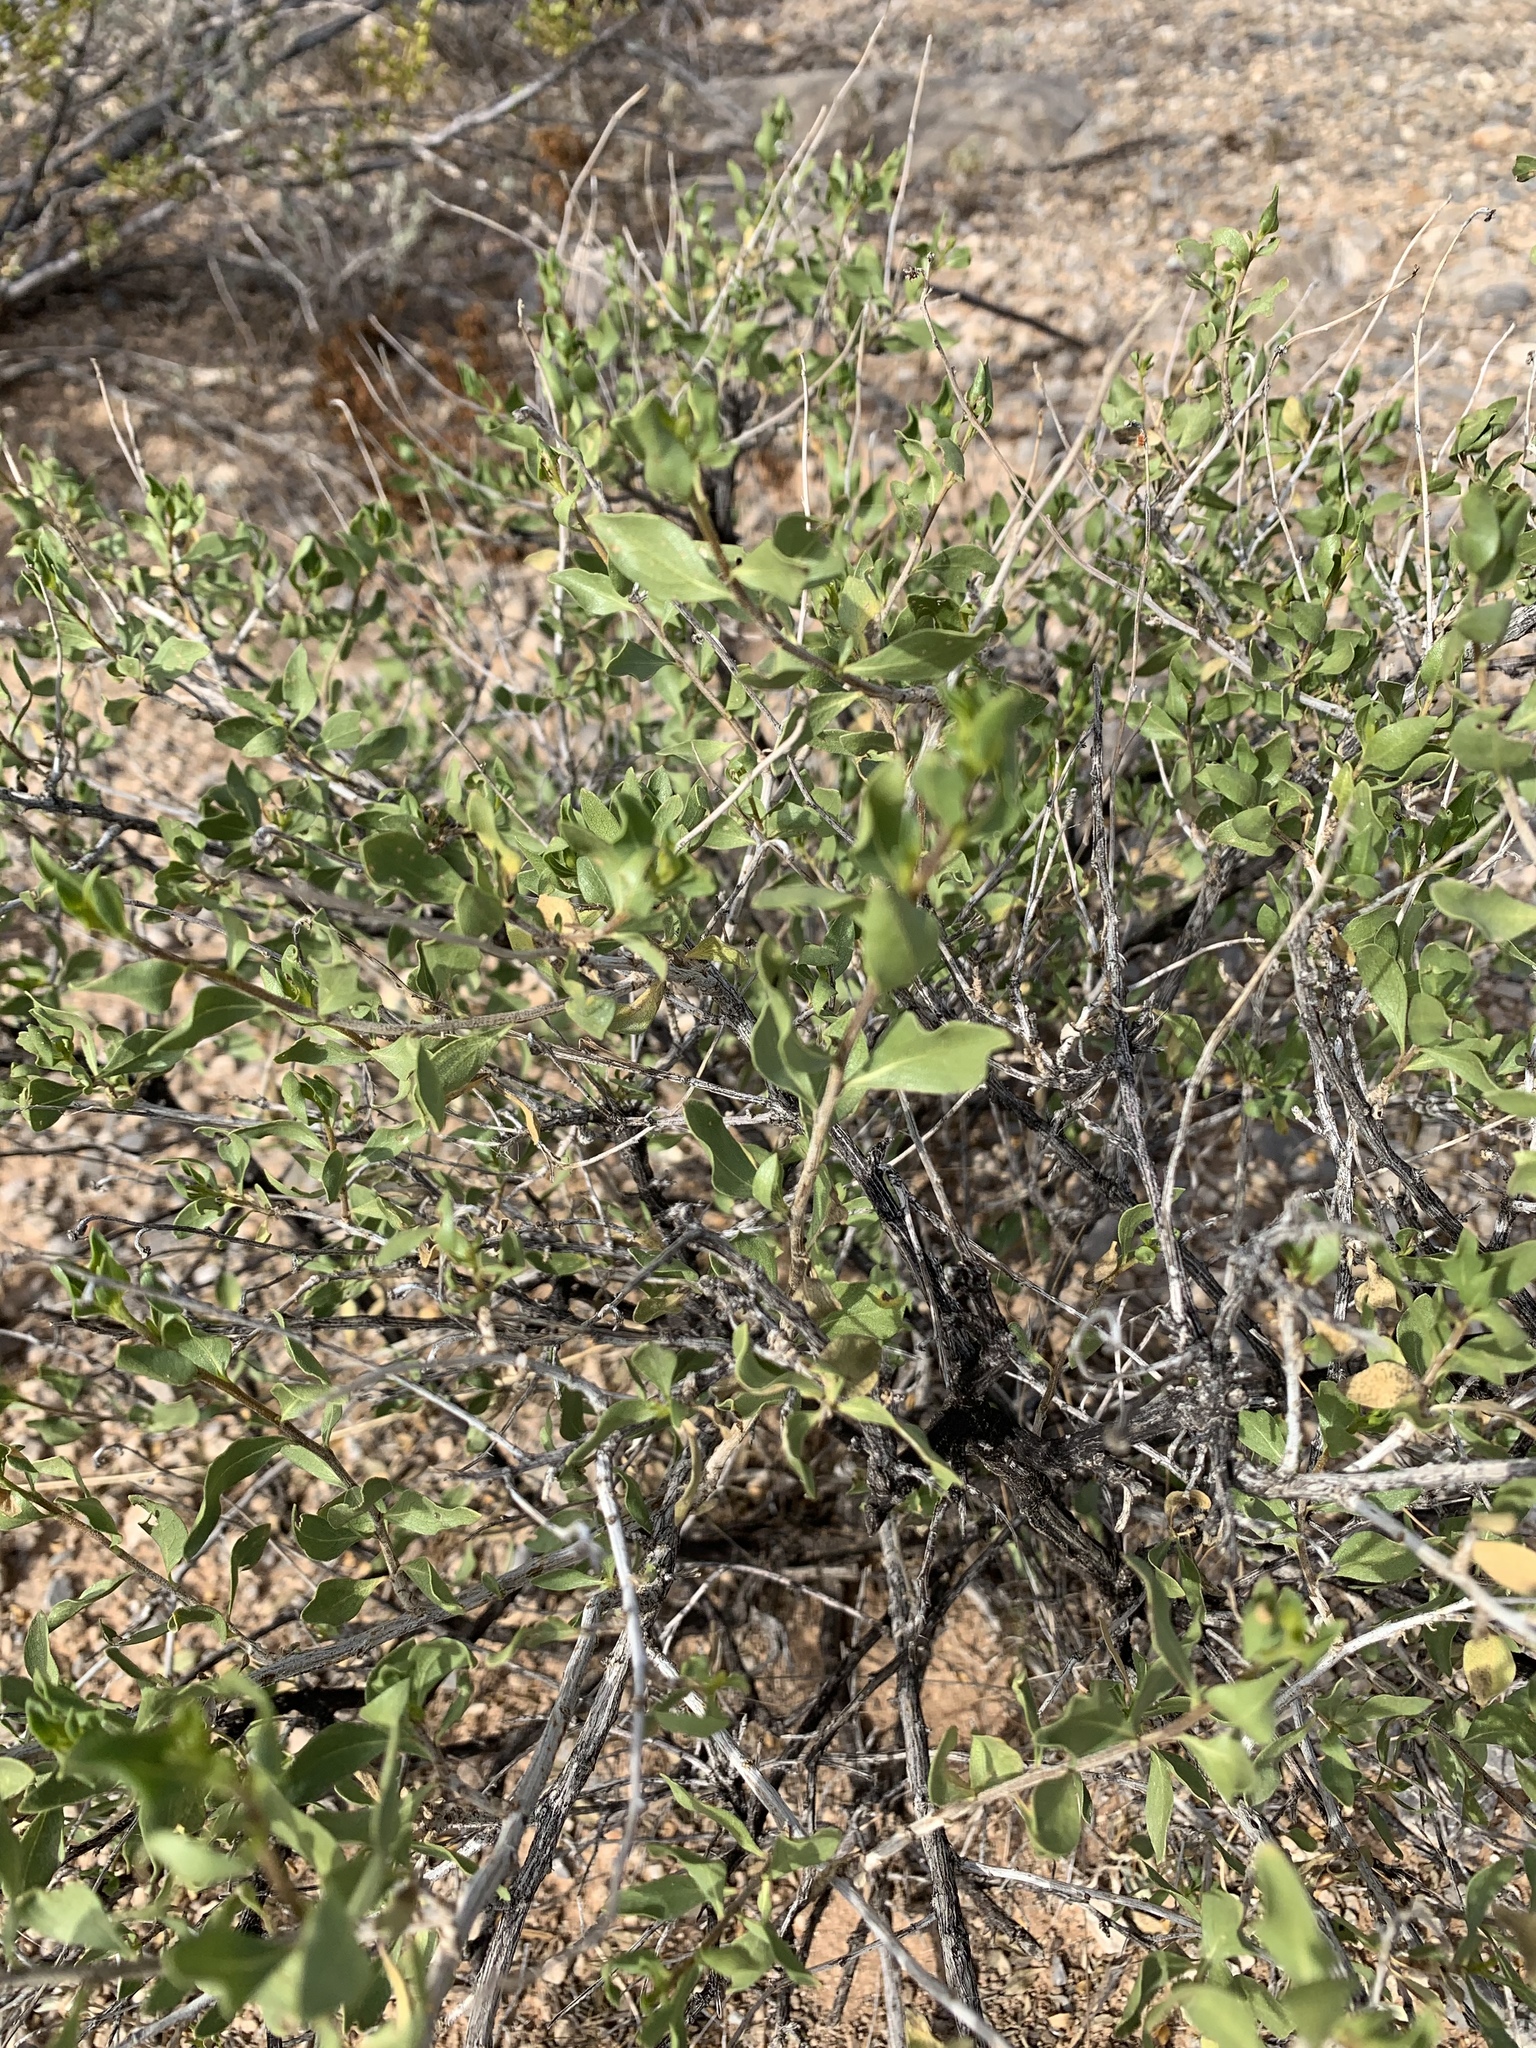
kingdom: Plantae
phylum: Tracheophyta
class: Magnoliopsida
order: Asterales
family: Asteraceae
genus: Flourensia
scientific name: Flourensia cernua
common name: Varnishbush
